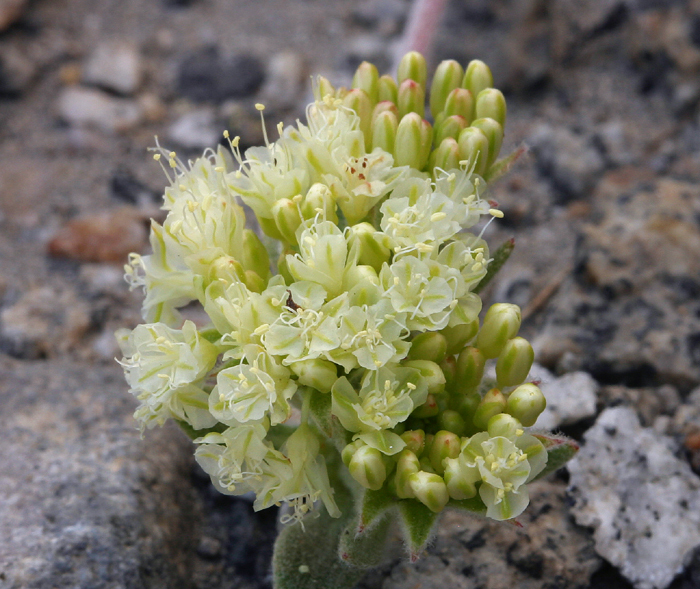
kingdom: Plantae
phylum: Tracheophyta
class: Magnoliopsida
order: Caryophyllales
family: Polygonaceae
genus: Eriogonum
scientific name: Eriogonum lobbii
